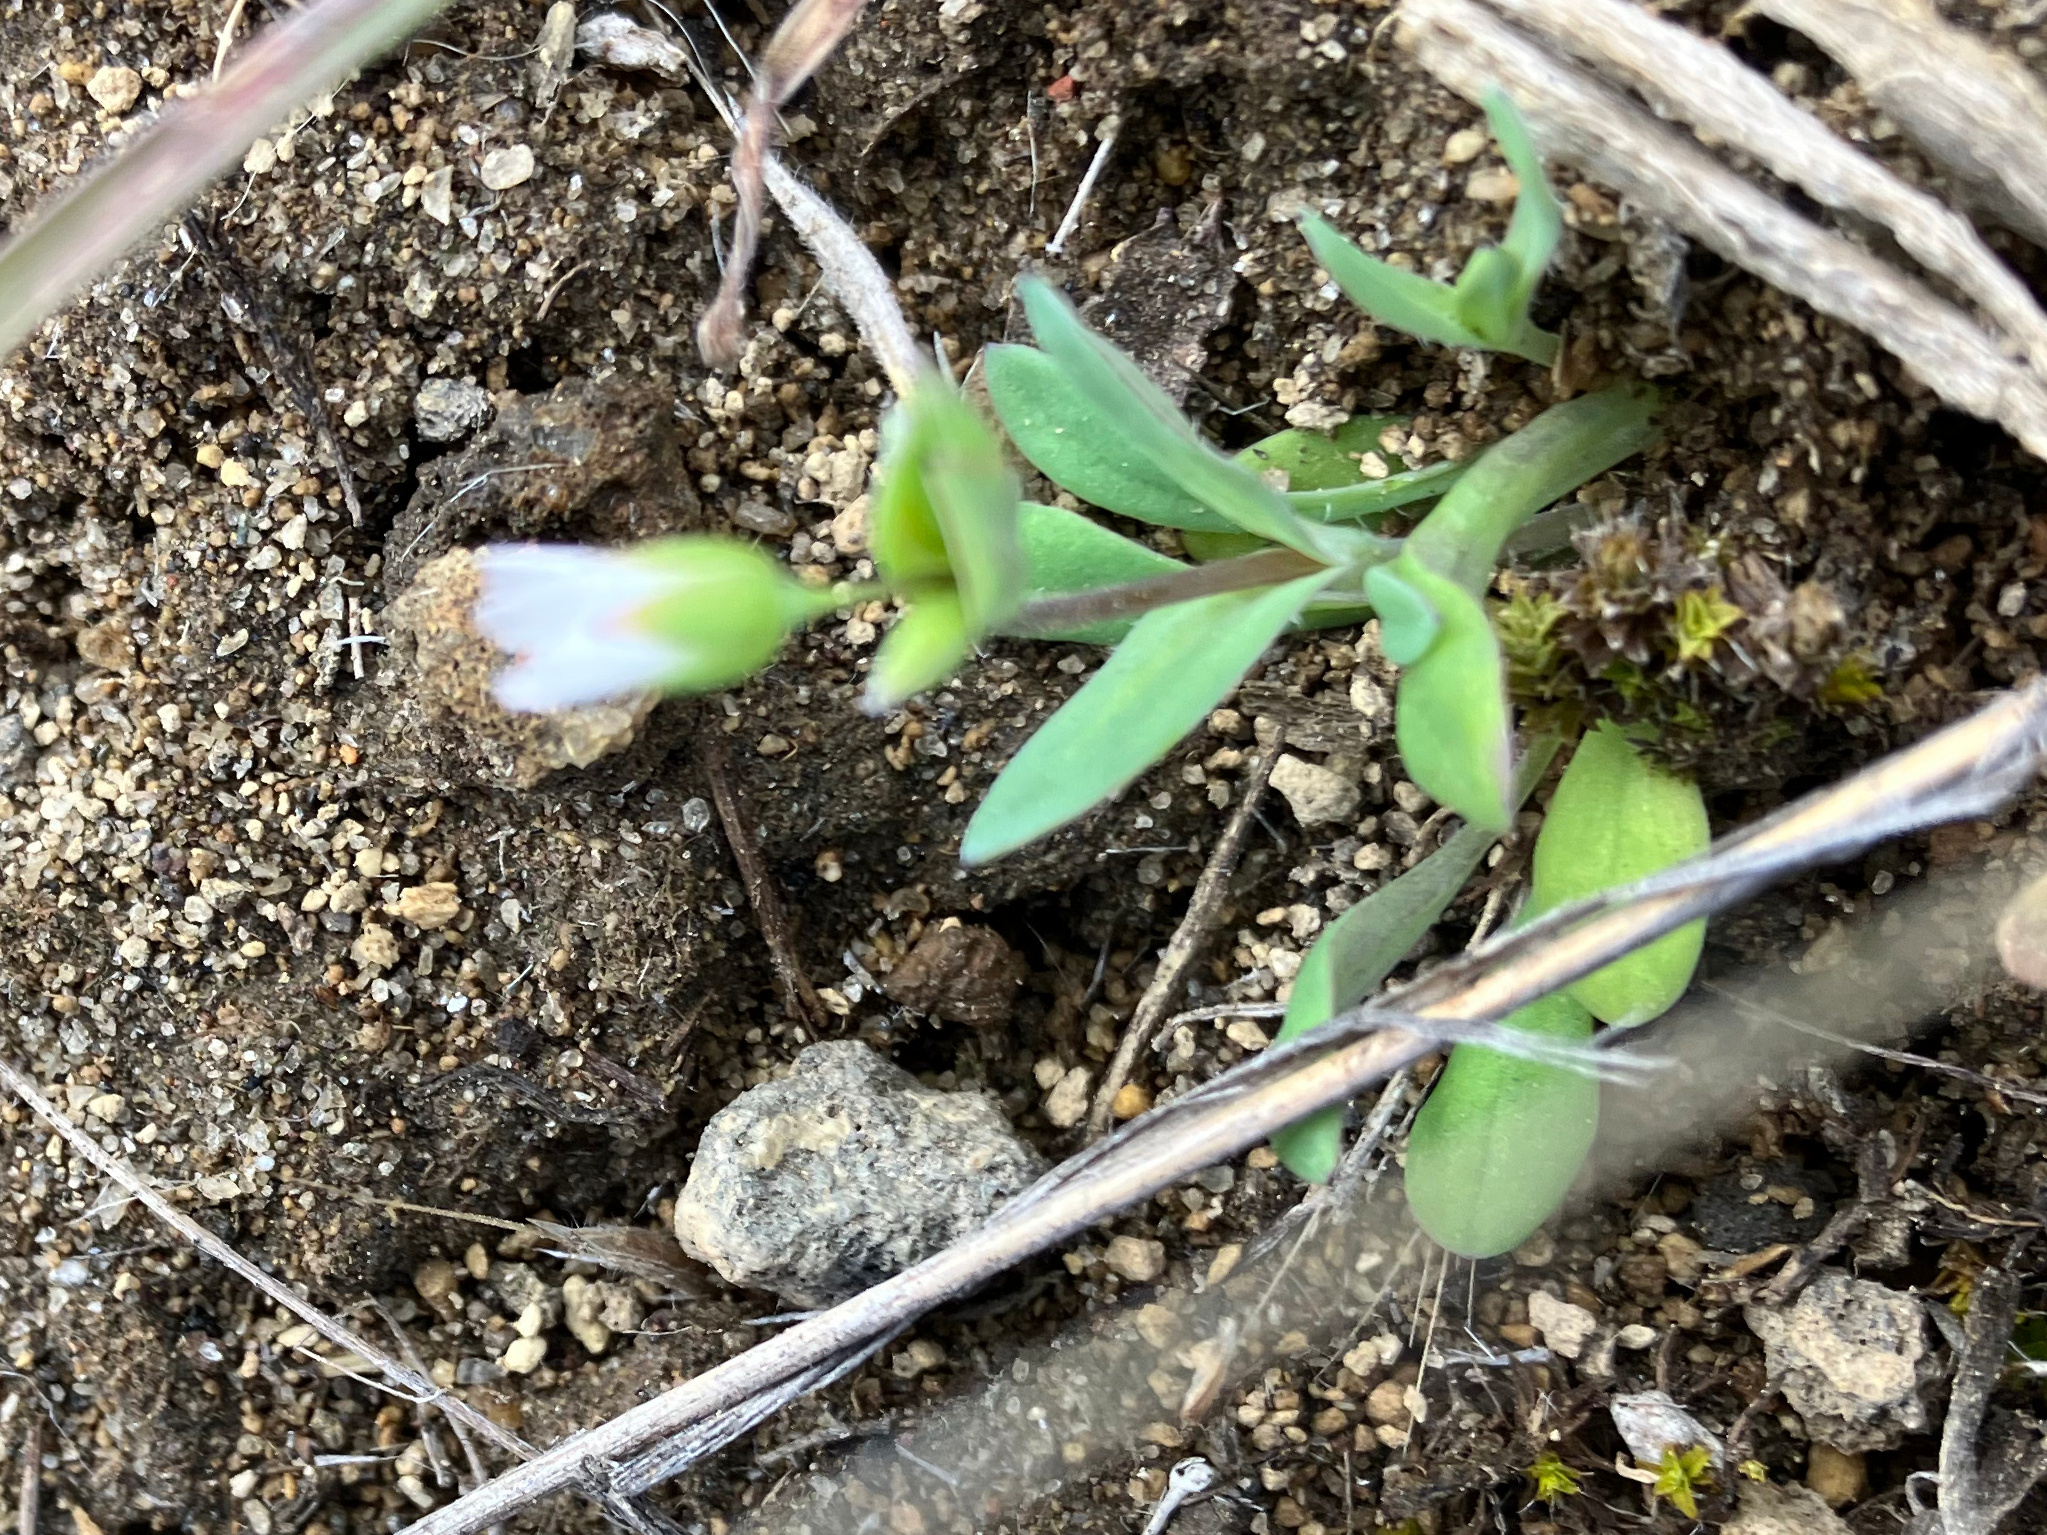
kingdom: Plantae
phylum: Tracheophyta
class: Magnoliopsida
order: Caryophyllales
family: Caryophyllaceae
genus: Holosteum
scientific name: Holosteum umbellatum
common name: Jagged chickweed
